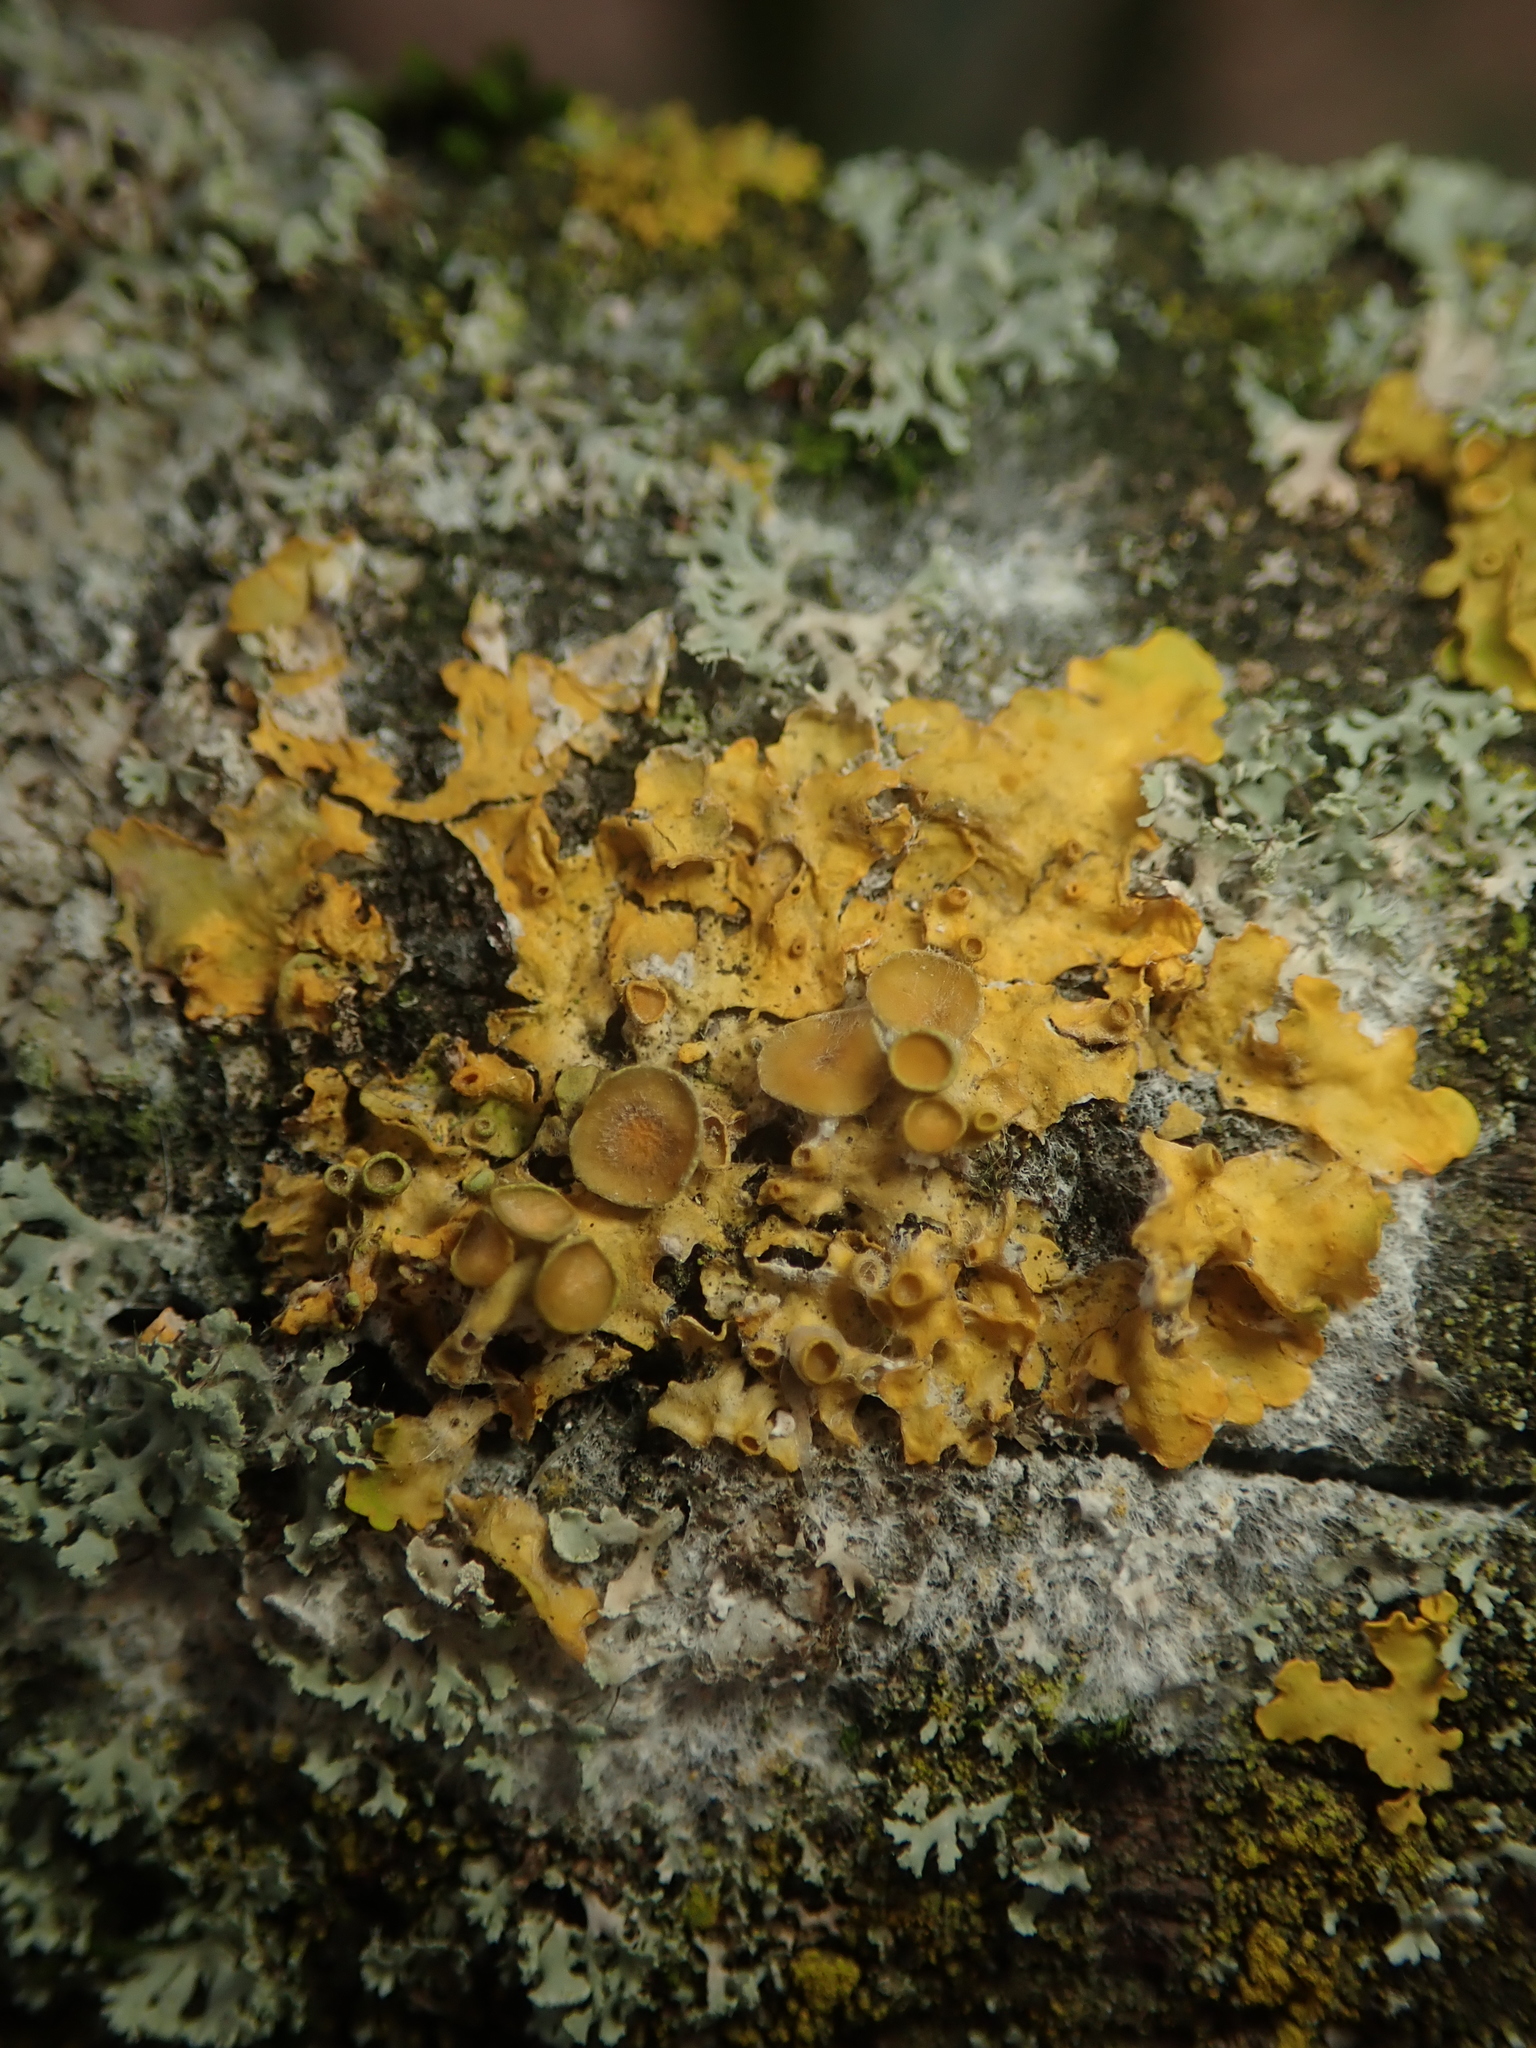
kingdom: Fungi
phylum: Ascomycota
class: Lecanoromycetes
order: Teloschistales
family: Teloschistaceae
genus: Xanthoria
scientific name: Xanthoria parietina
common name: Common orange lichen
